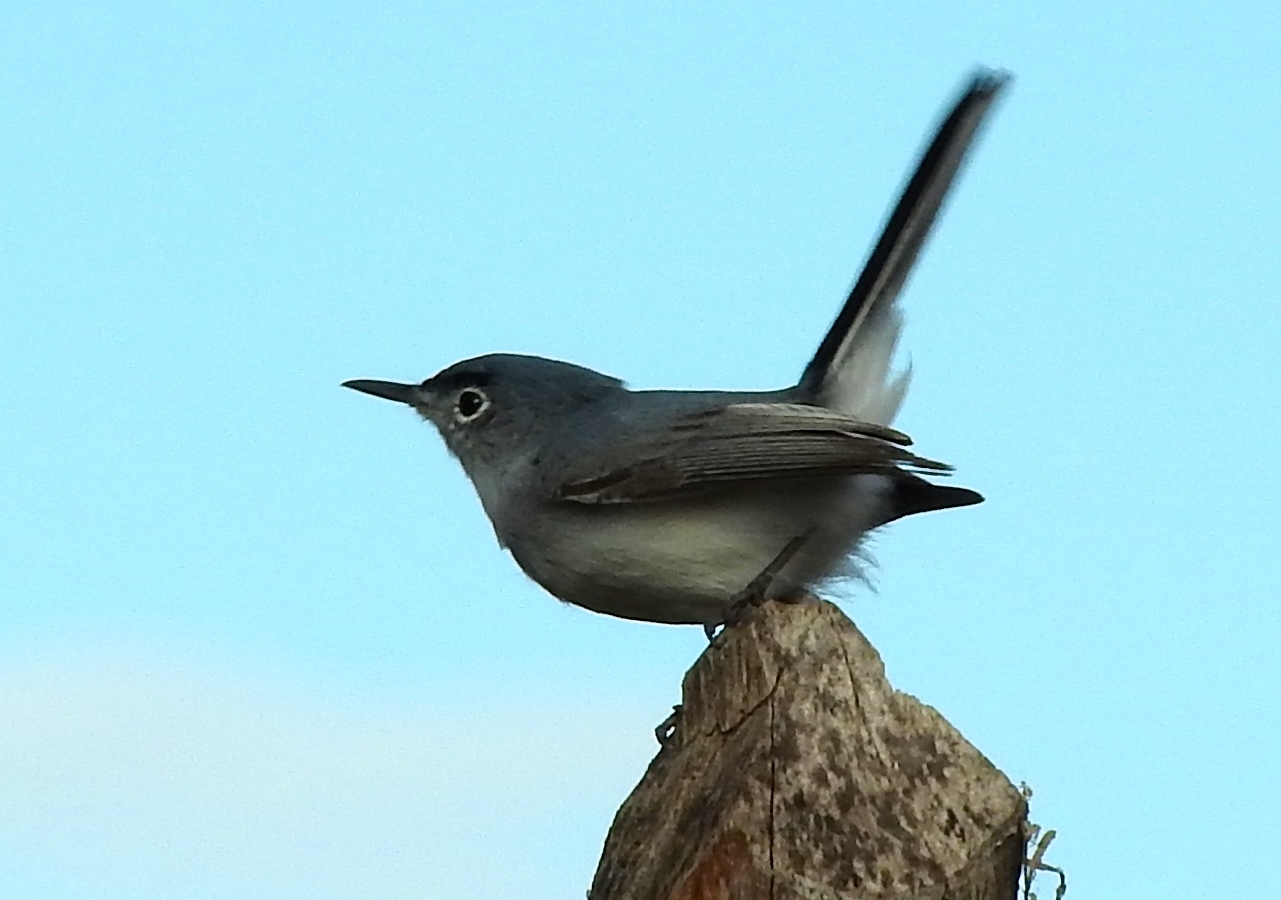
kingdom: Animalia
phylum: Chordata
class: Aves
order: Passeriformes
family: Polioptilidae
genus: Polioptila
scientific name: Polioptila caerulea
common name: Blue-gray gnatcatcher
